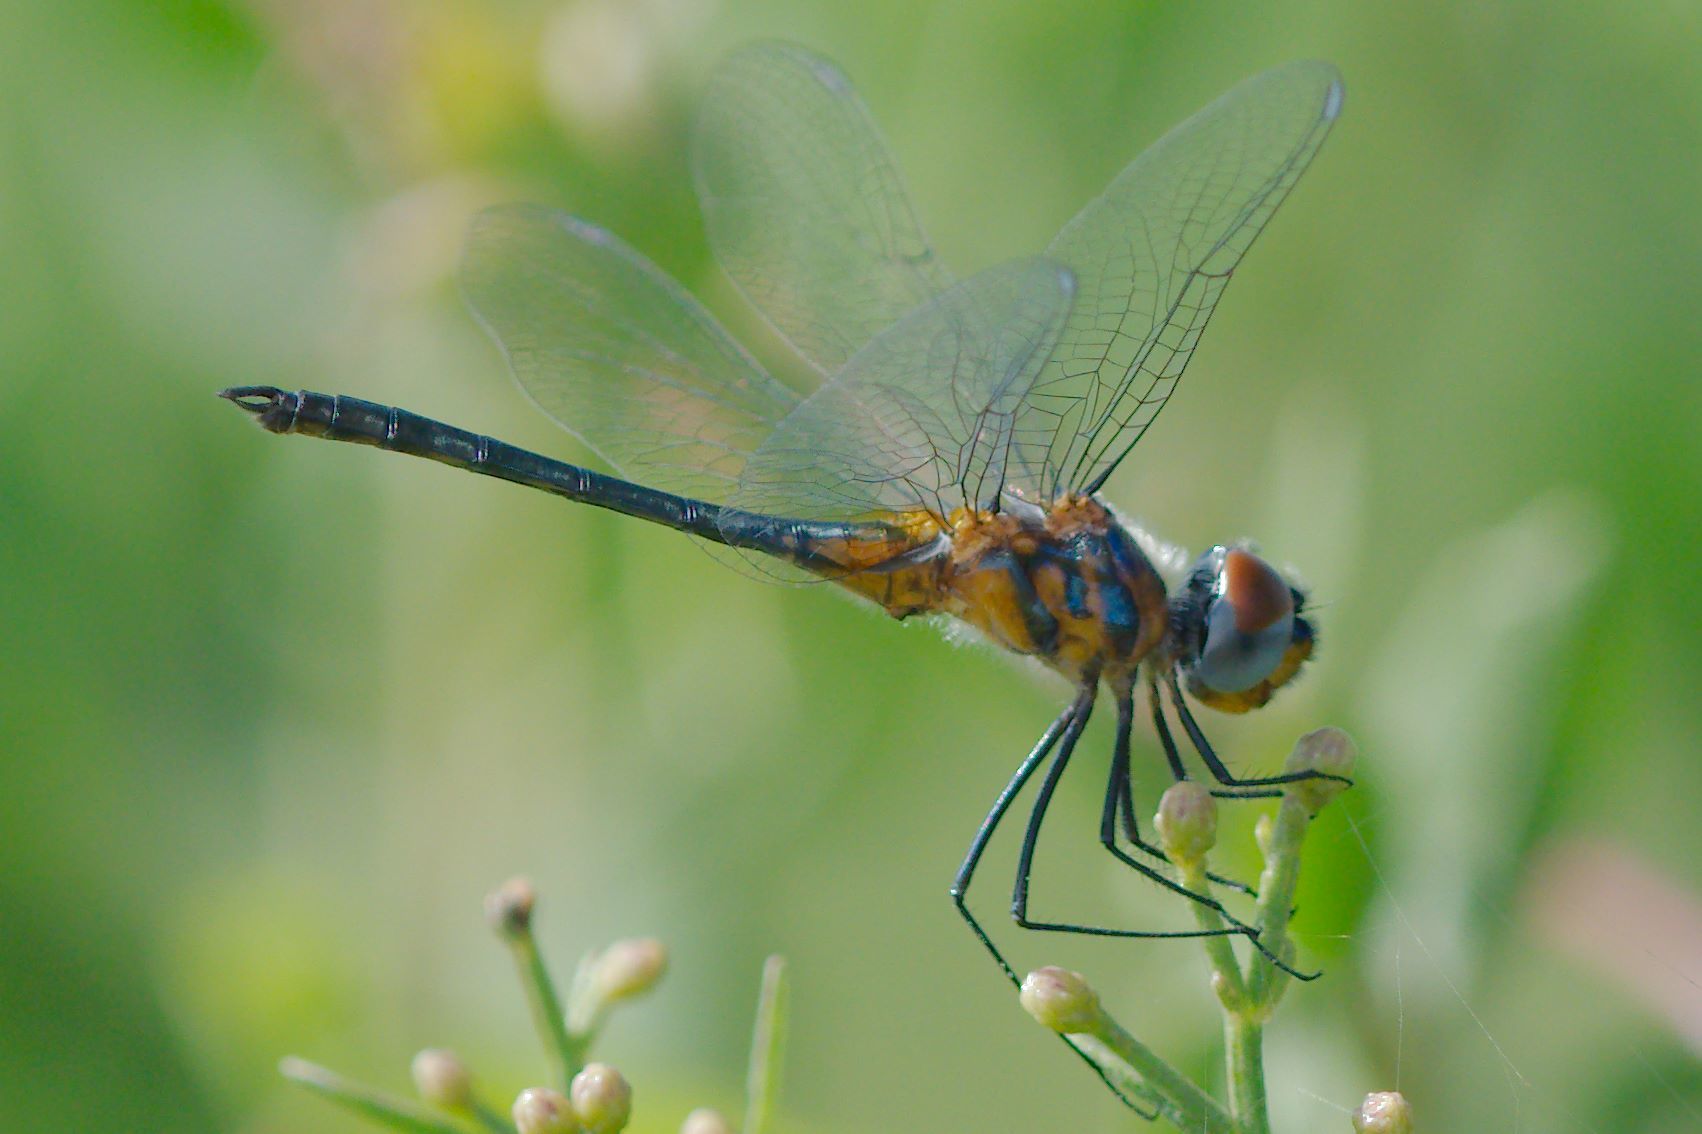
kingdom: Animalia
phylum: Arthropoda
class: Insecta
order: Odonata
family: Libellulidae
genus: Idiataphe
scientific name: Idiataphe cubensis
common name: Metallic pennant
